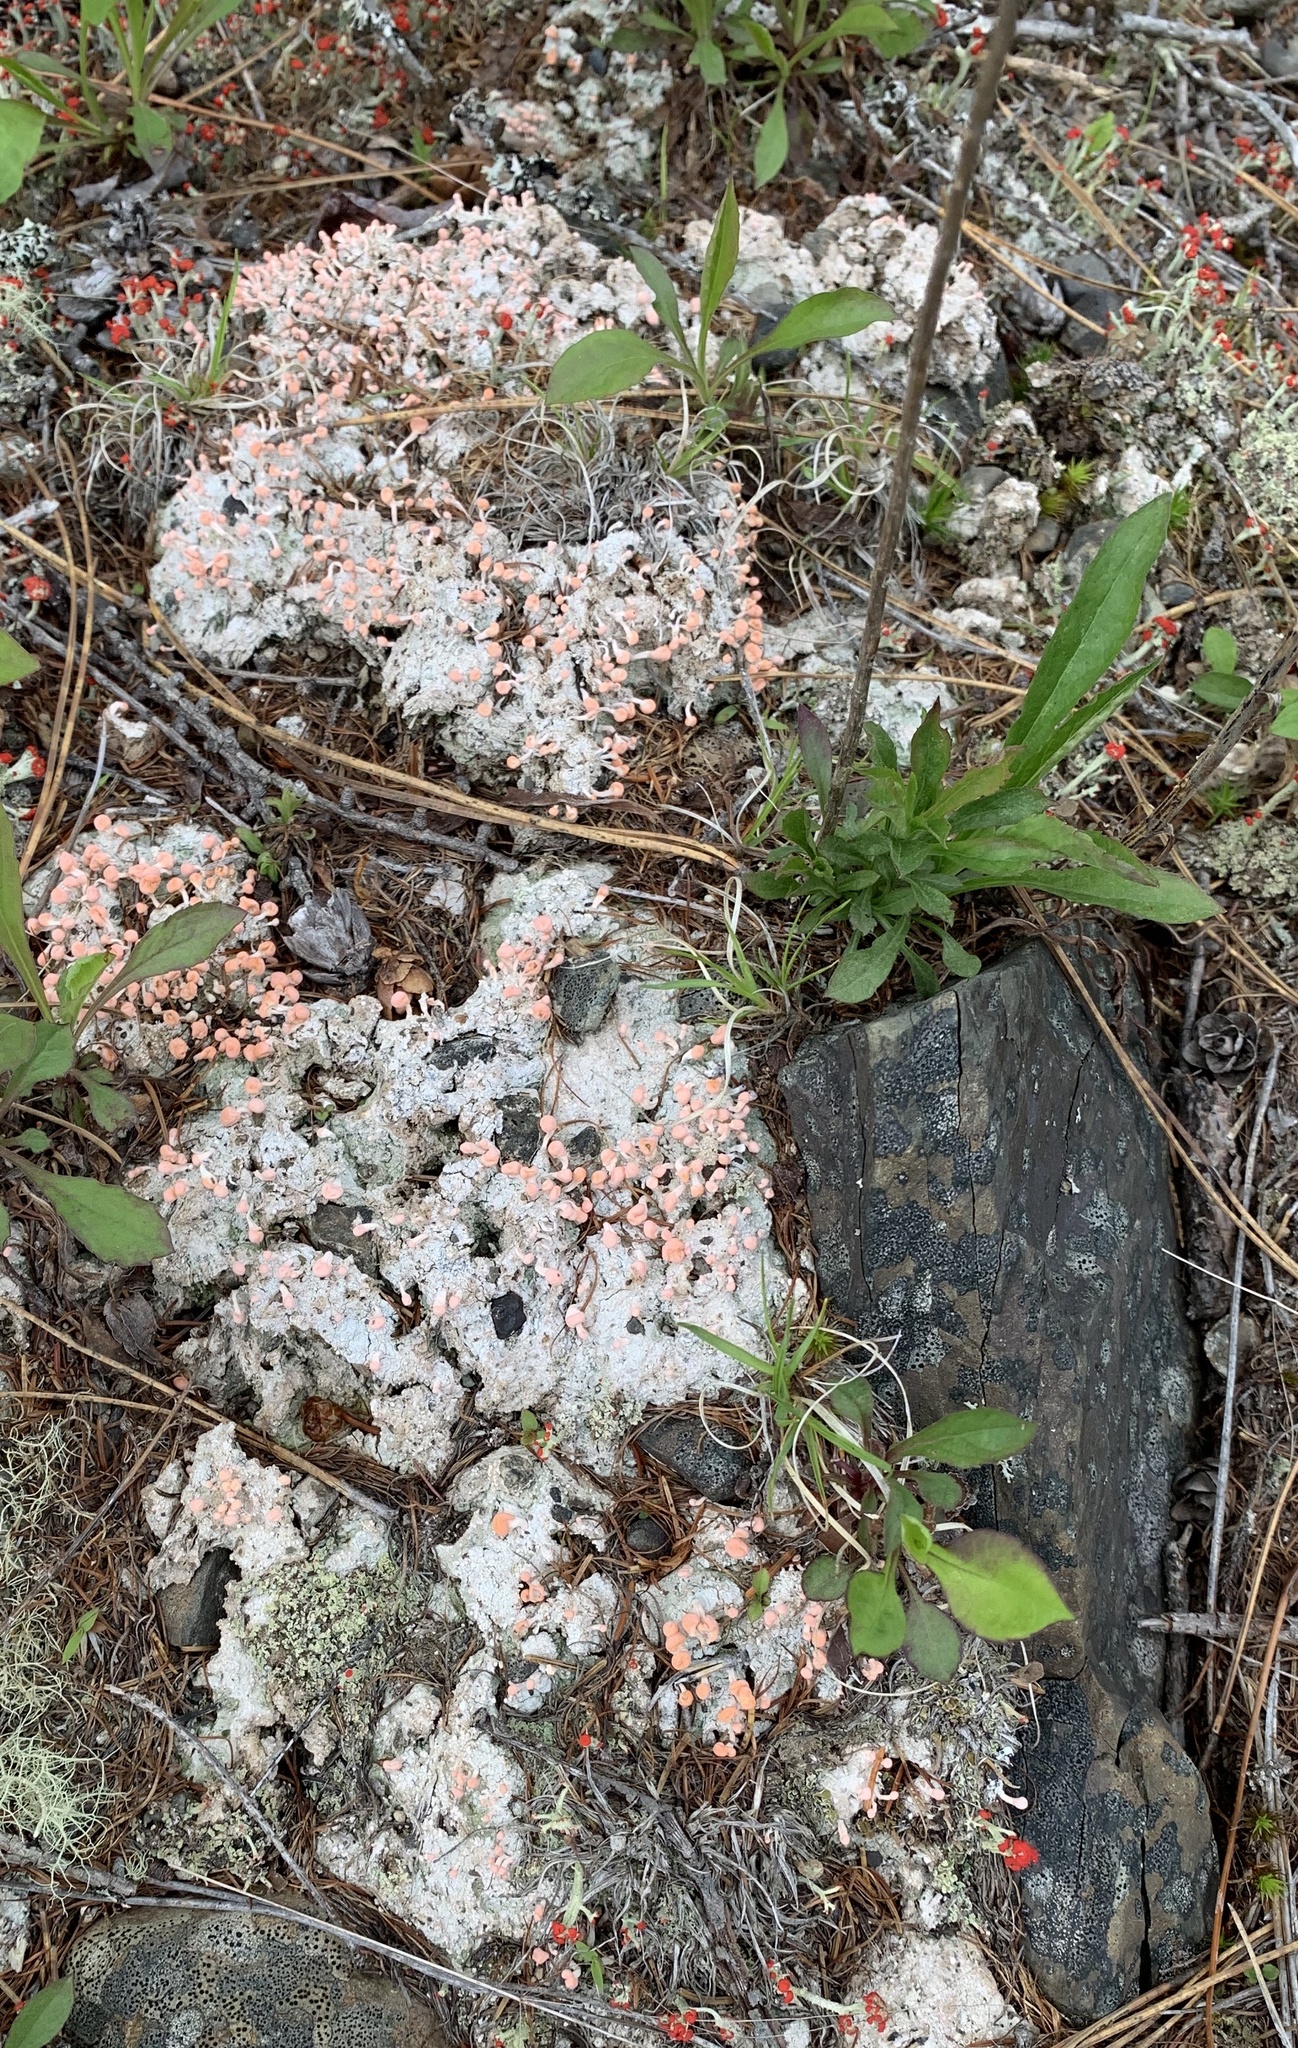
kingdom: Fungi
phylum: Ascomycota
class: Lecanoromycetes
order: Pertusariales
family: Icmadophilaceae
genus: Dibaeis
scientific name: Dibaeis baeomyces
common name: Pink earth lichen
